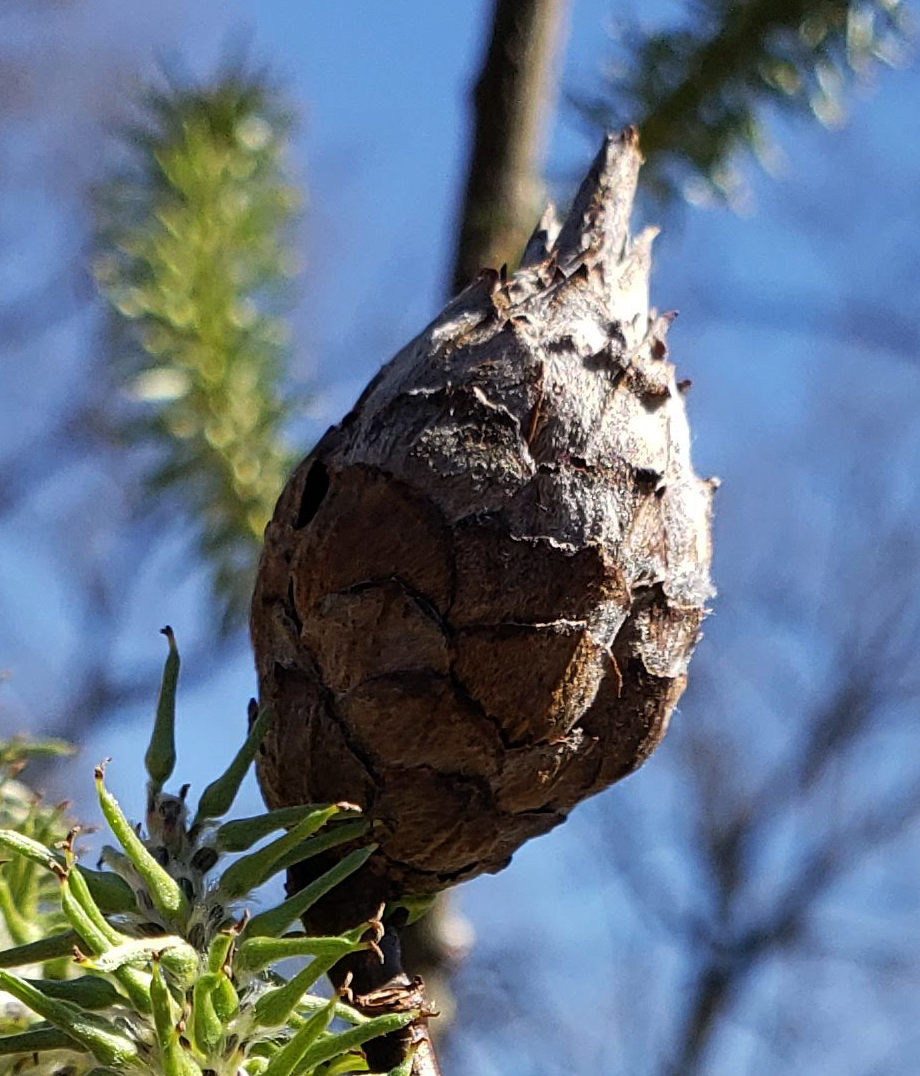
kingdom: Animalia
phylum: Arthropoda
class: Insecta
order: Diptera
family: Cecidomyiidae
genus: Rabdophaga
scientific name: Rabdophaga strobiloides
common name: Willow pinecone gall midge
